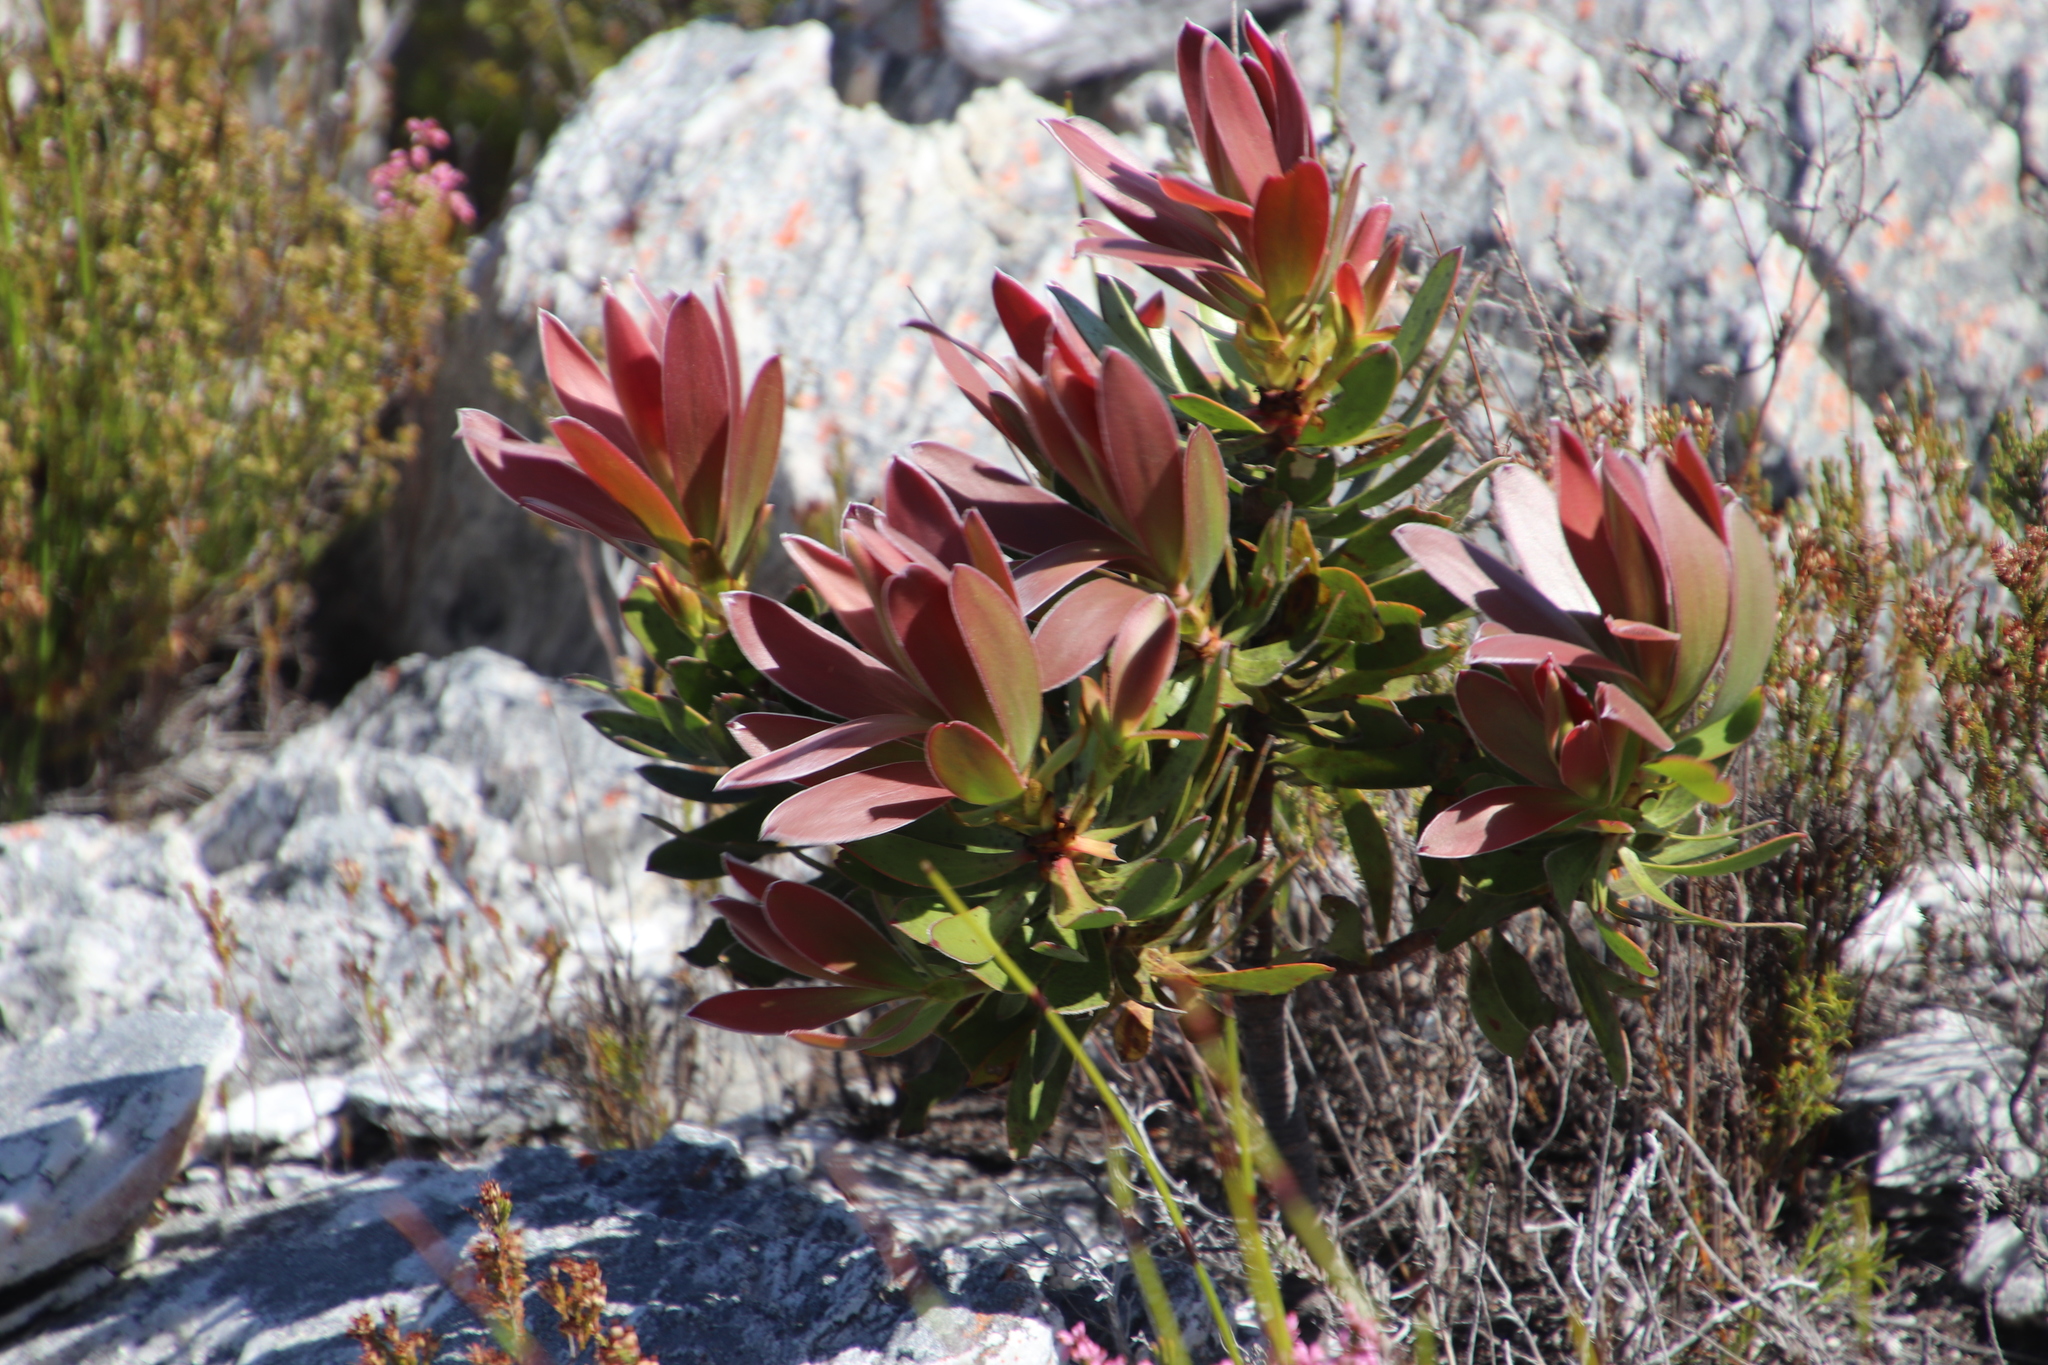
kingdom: Plantae
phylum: Tracheophyta
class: Magnoliopsida
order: Proteales
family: Proteaceae
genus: Leucadendron
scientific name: Leucadendron gandogeri
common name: Broad-leaf conebush
